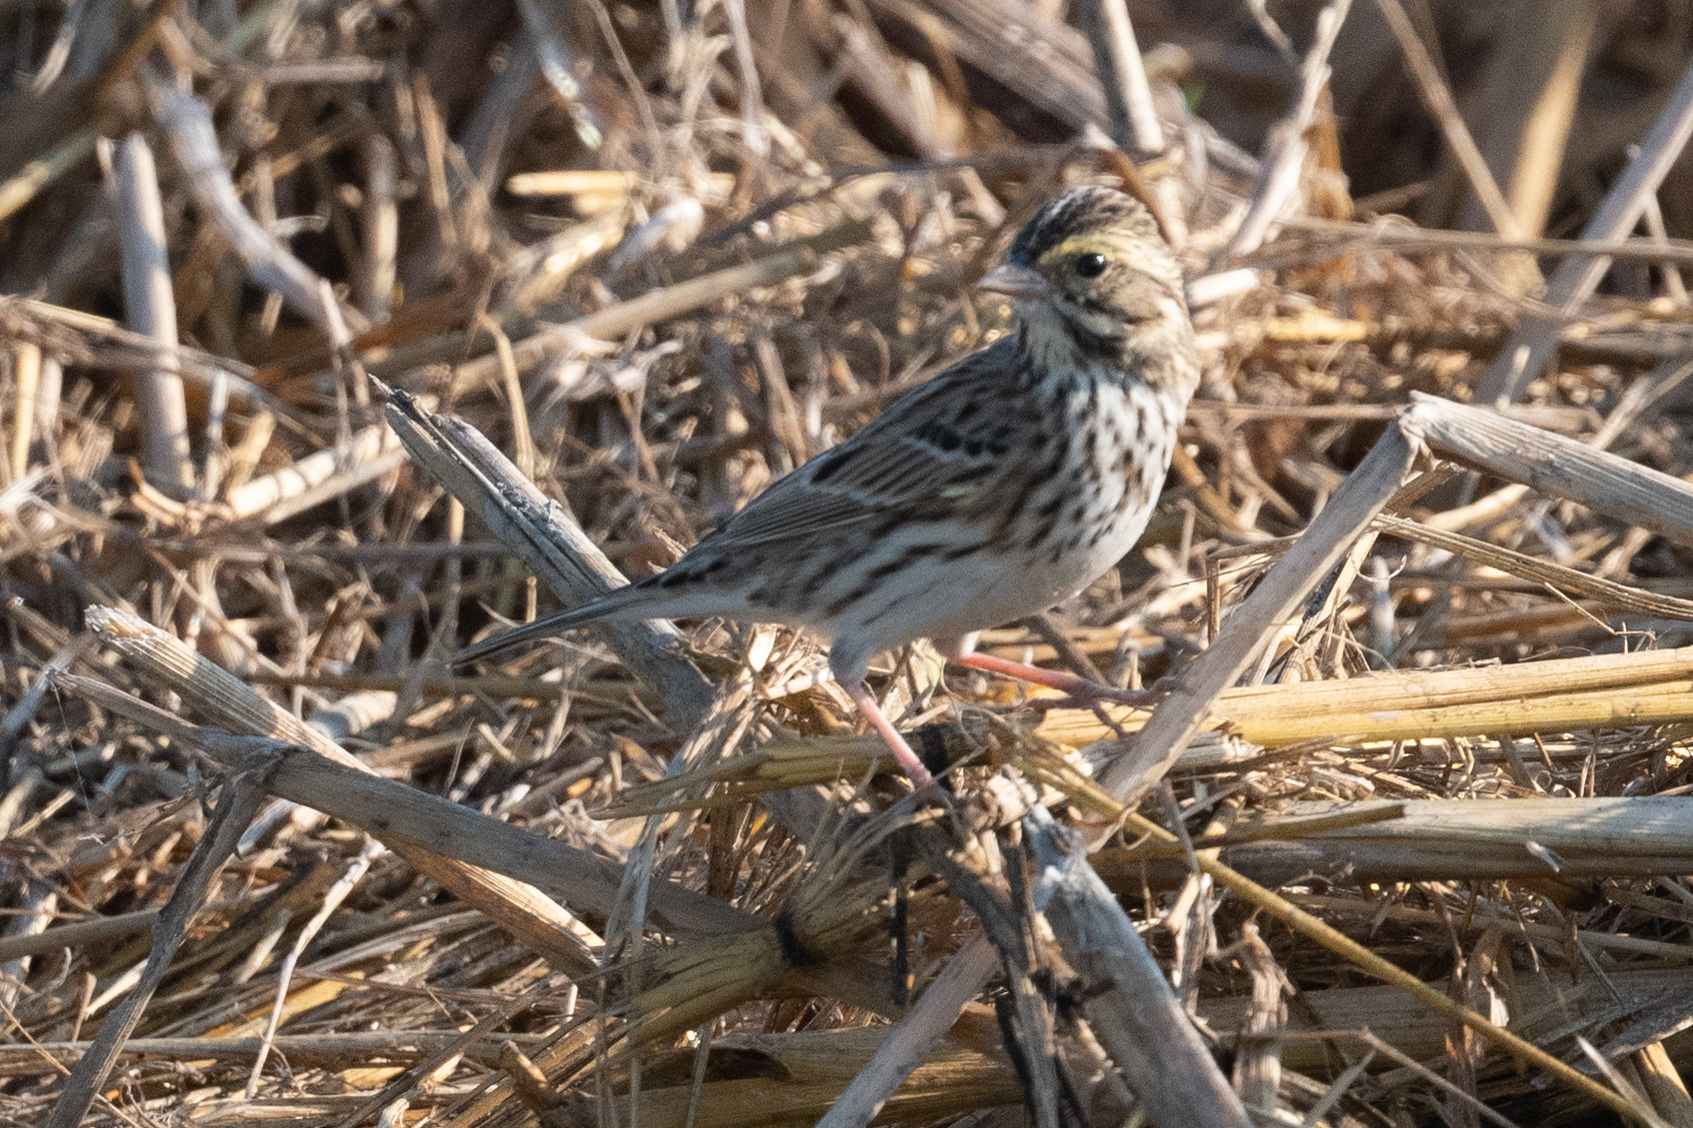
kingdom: Animalia
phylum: Chordata
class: Aves
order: Passeriformes
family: Passerellidae
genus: Passerculus
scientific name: Passerculus sandwichensis
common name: Savannah sparrow
